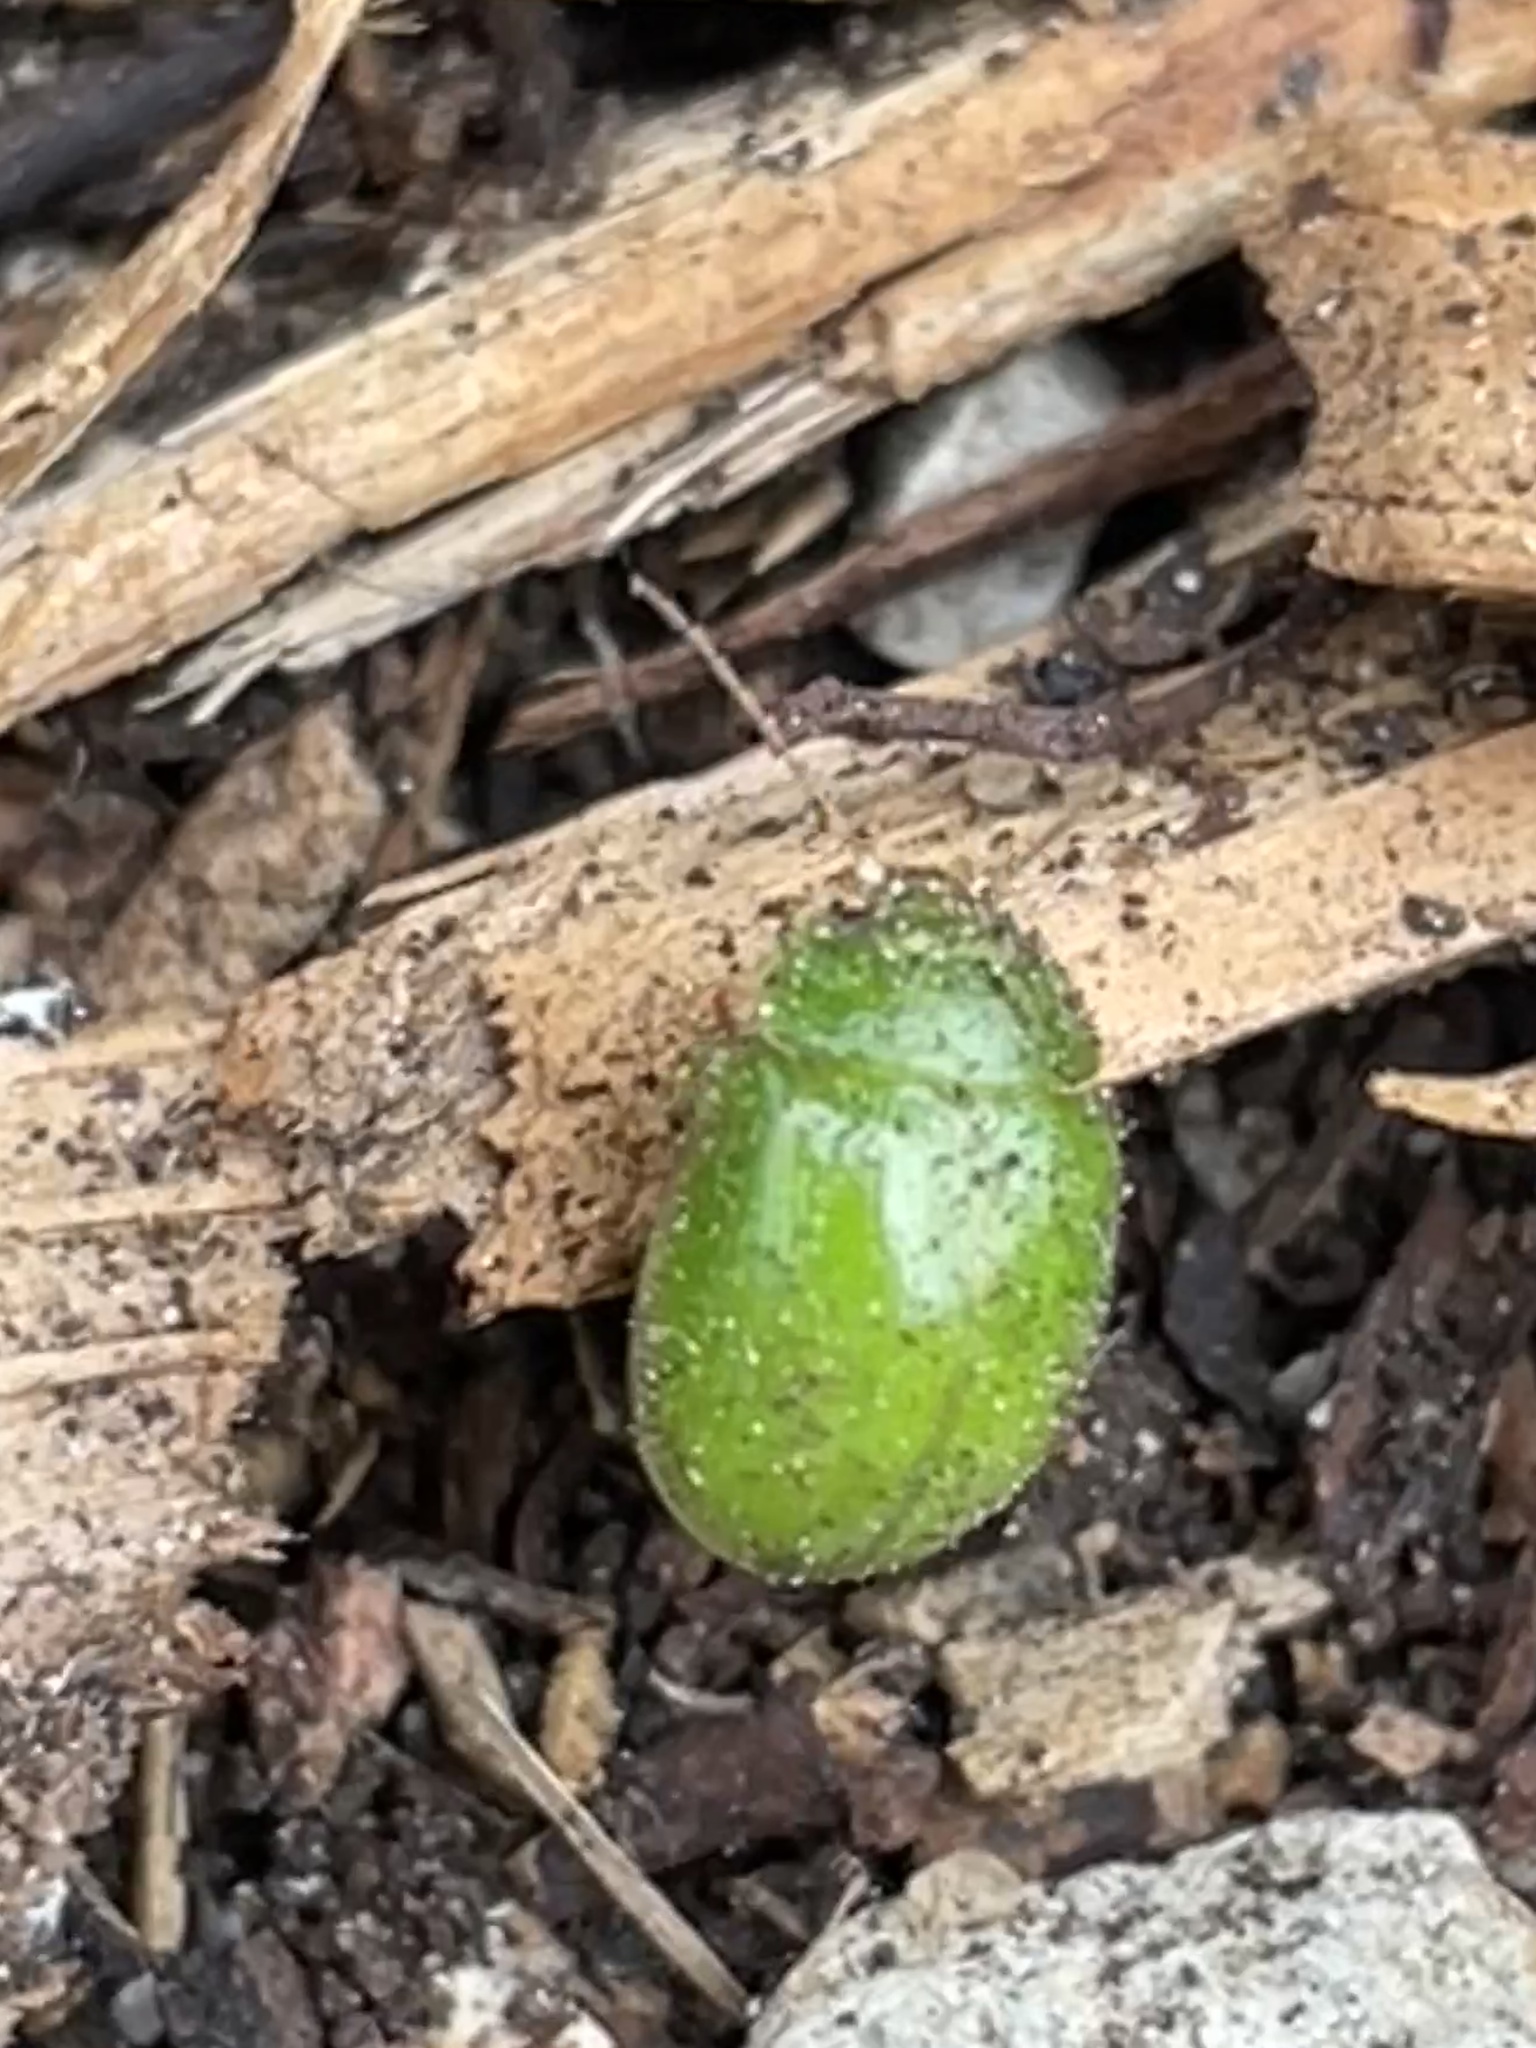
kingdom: Animalia
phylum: Arthropoda
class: Insecta
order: Coleoptera
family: Chrysomelidae
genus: Paropsides
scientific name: Paropsides
